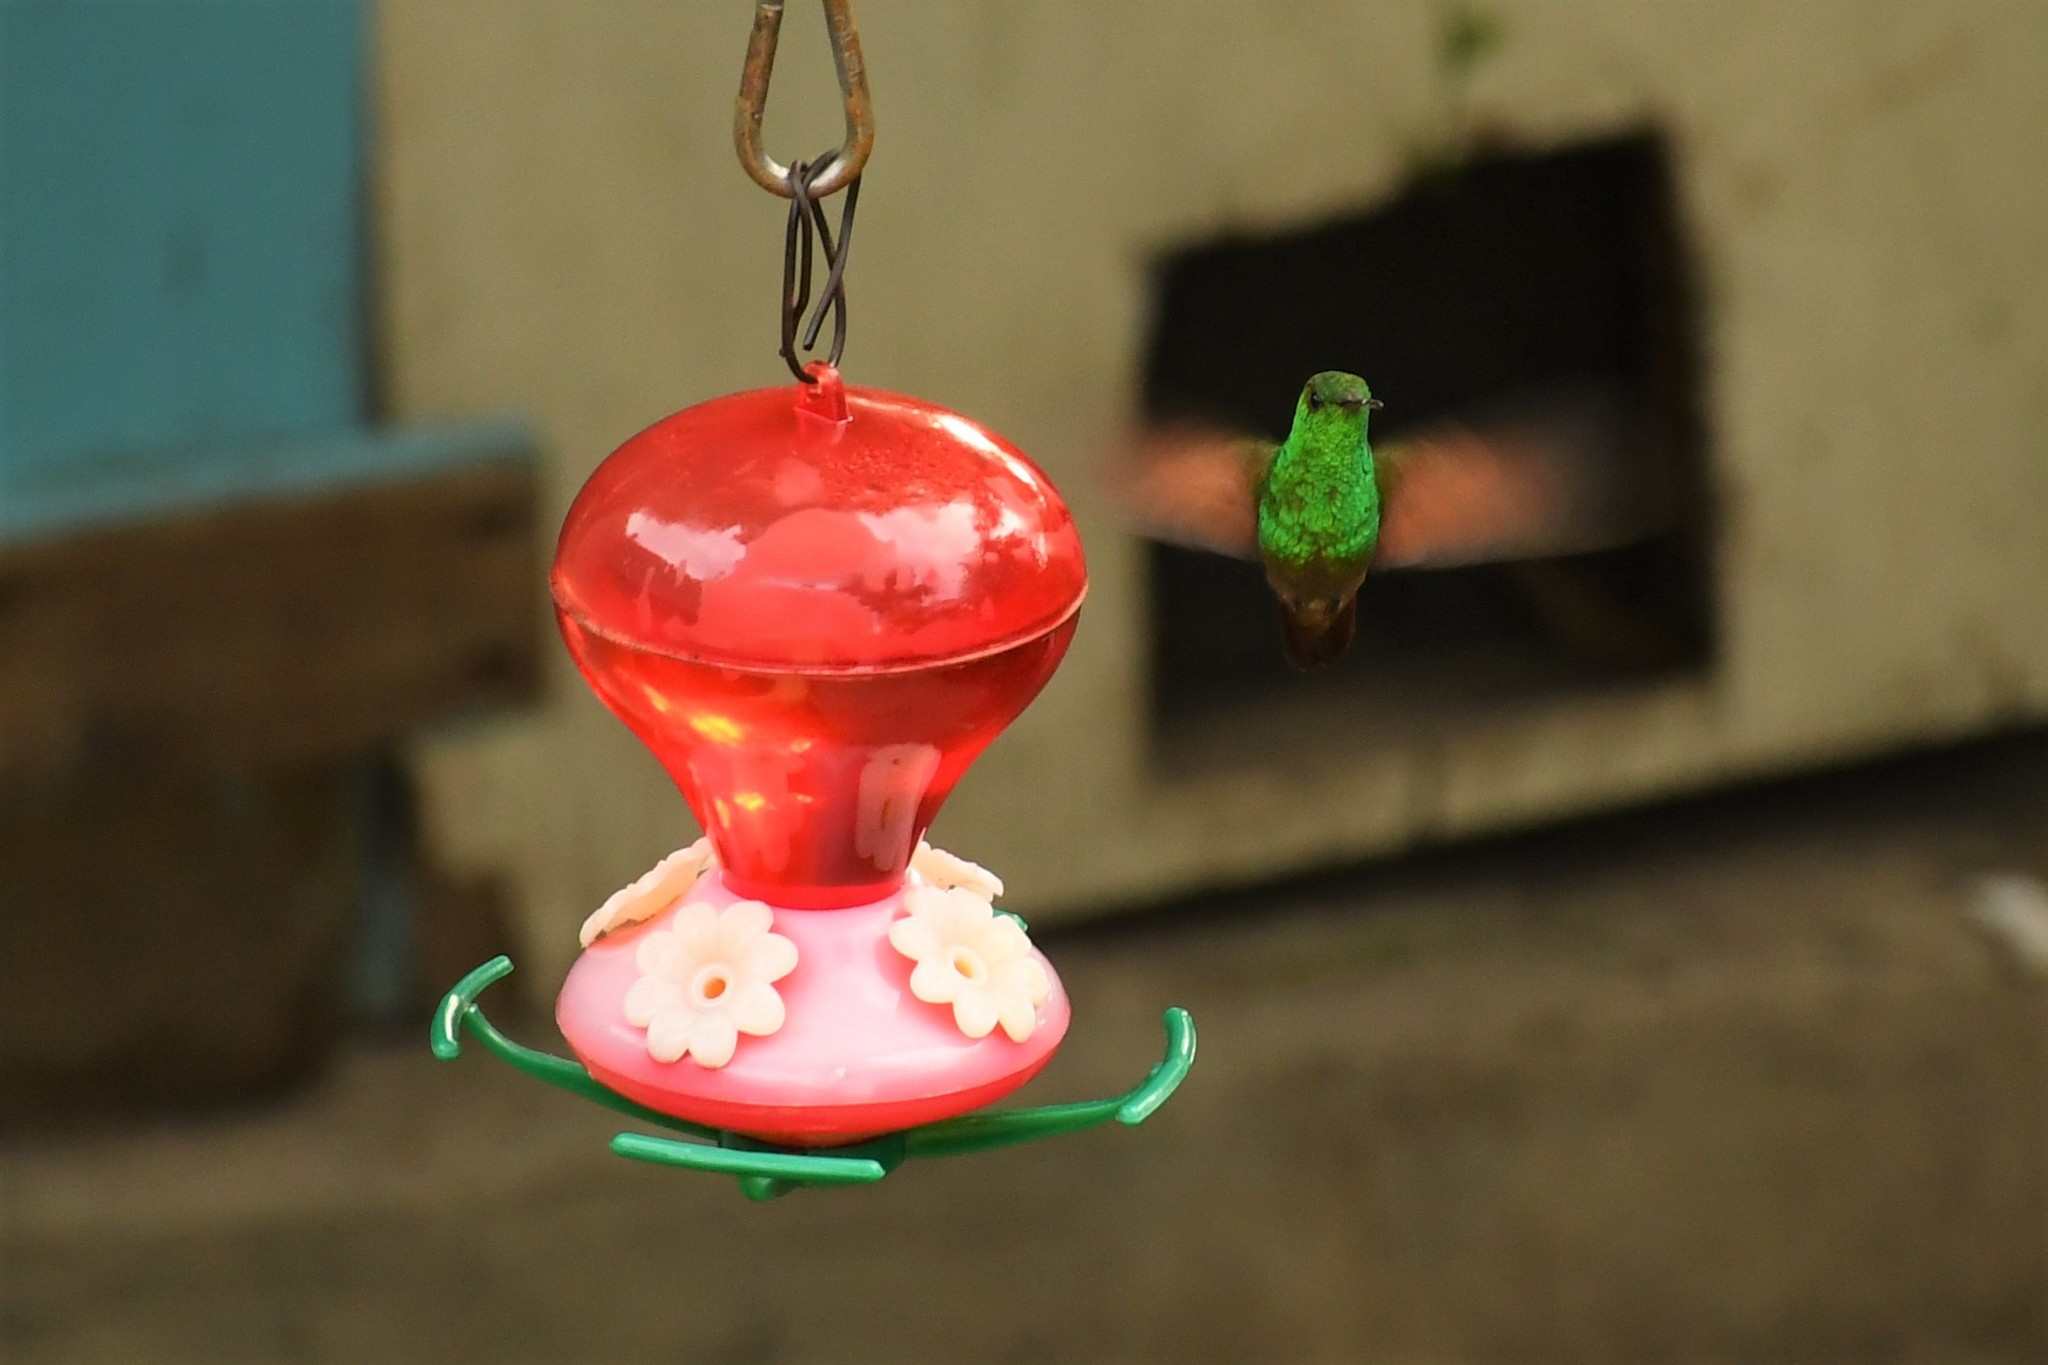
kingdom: Animalia
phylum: Chordata
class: Aves
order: Apodiformes
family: Trochilidae
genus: Saucerottia
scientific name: Saucerottia beryllina
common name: Berylline hummingbird
